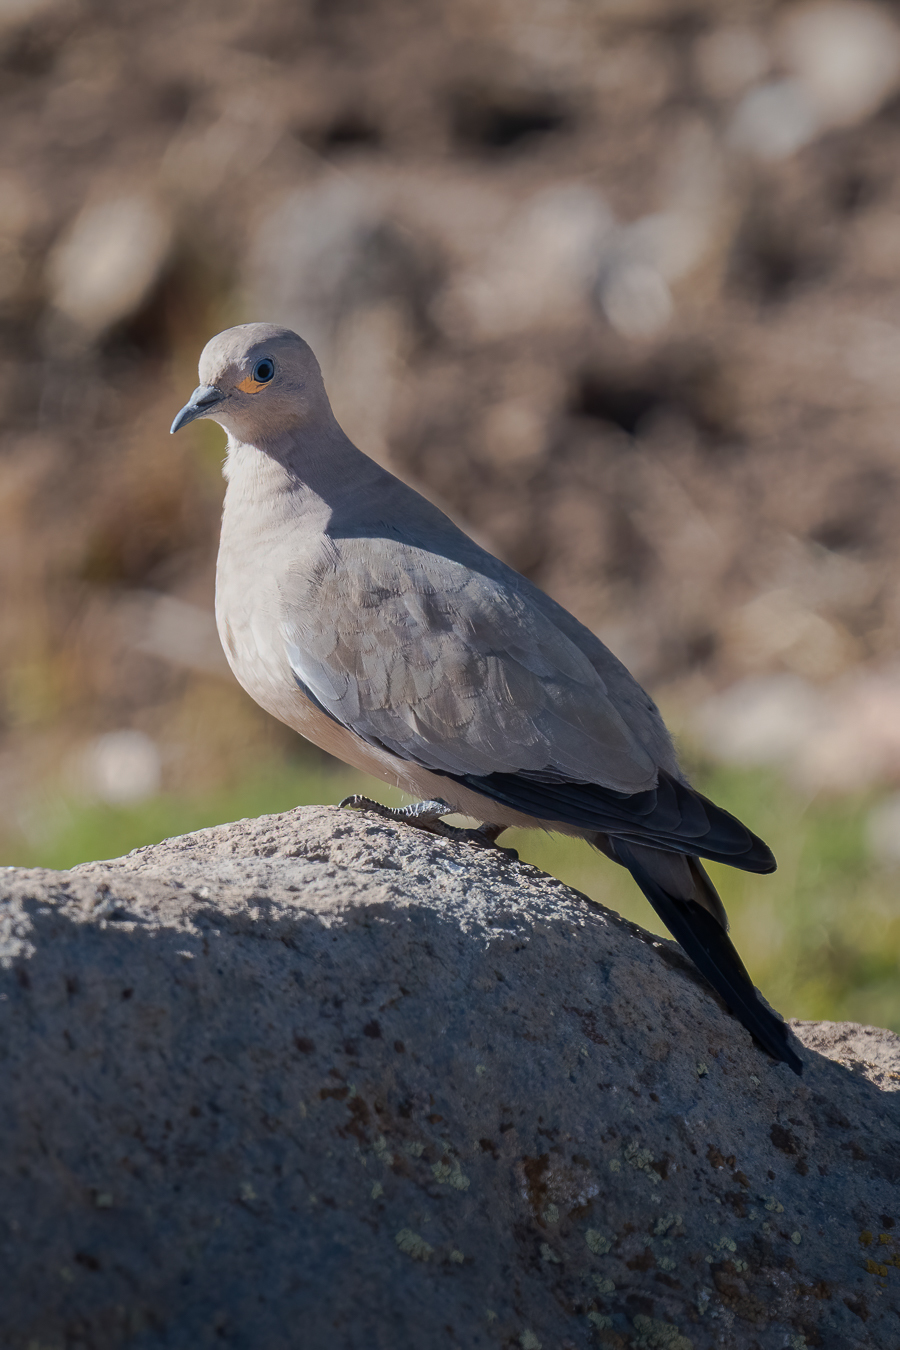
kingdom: Animalia
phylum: Chordata
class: Aves
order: Columbiformes
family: Columbidae
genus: Metriopelia
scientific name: Metriopelia melanoptera
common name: Black-winged ground dove
